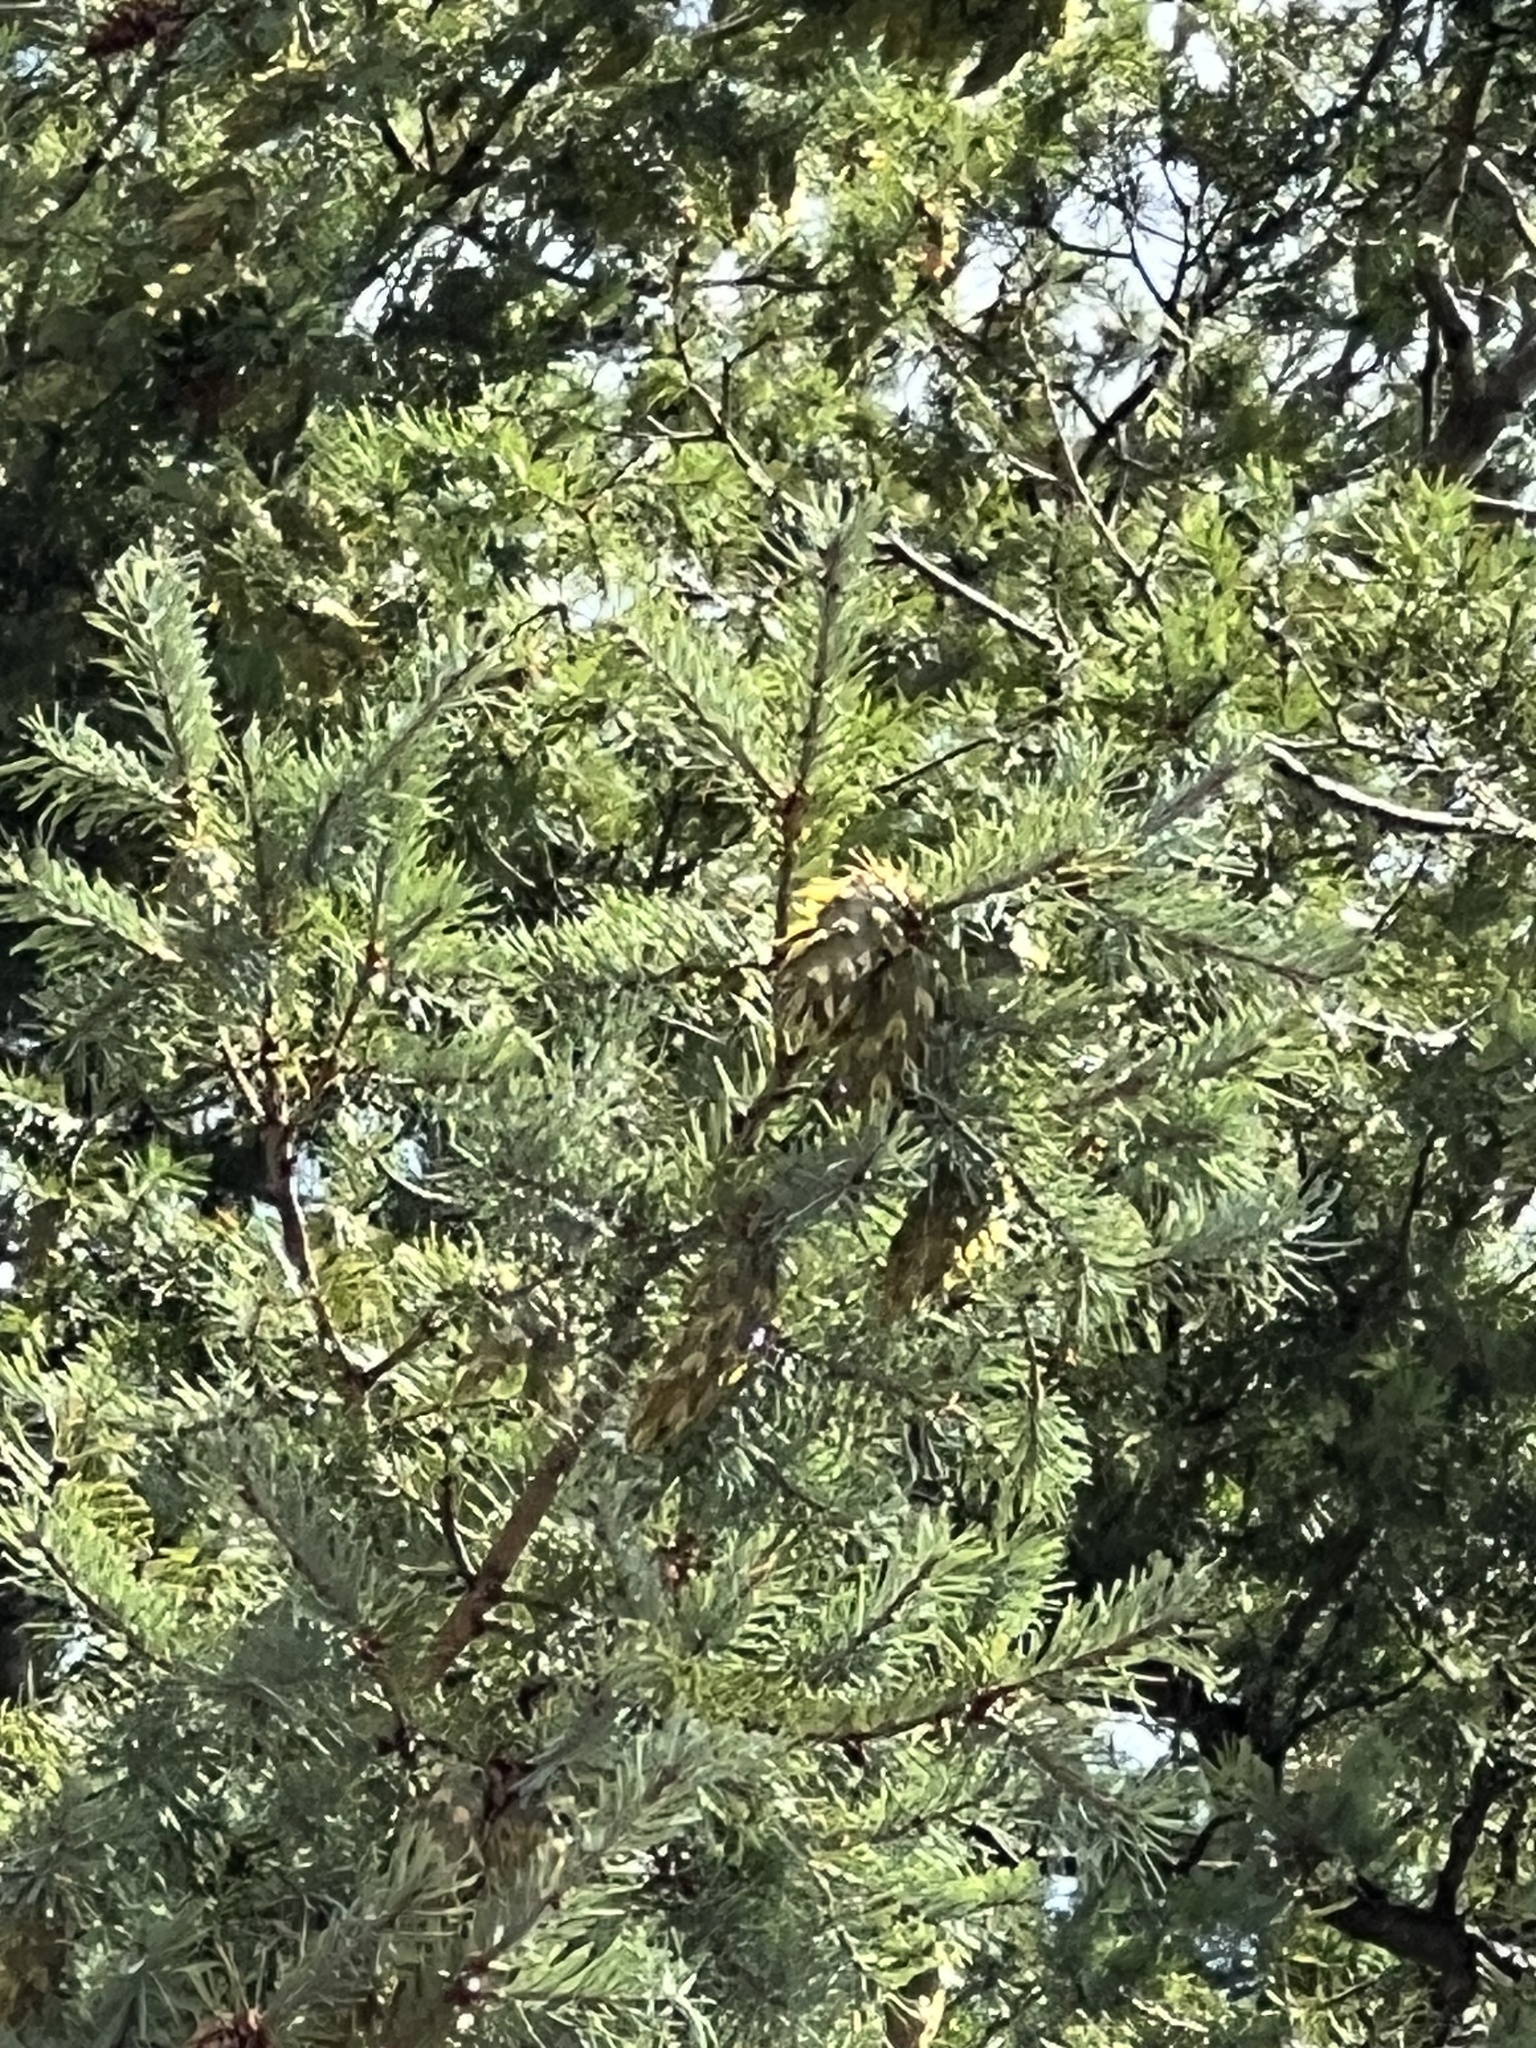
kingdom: Plantae
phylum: Tracheophyta
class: Pinopsida
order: Pinales
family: Pinaceae
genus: Pseudotsuga
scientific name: Pseudotsuga menziesii
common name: Douglas fir
